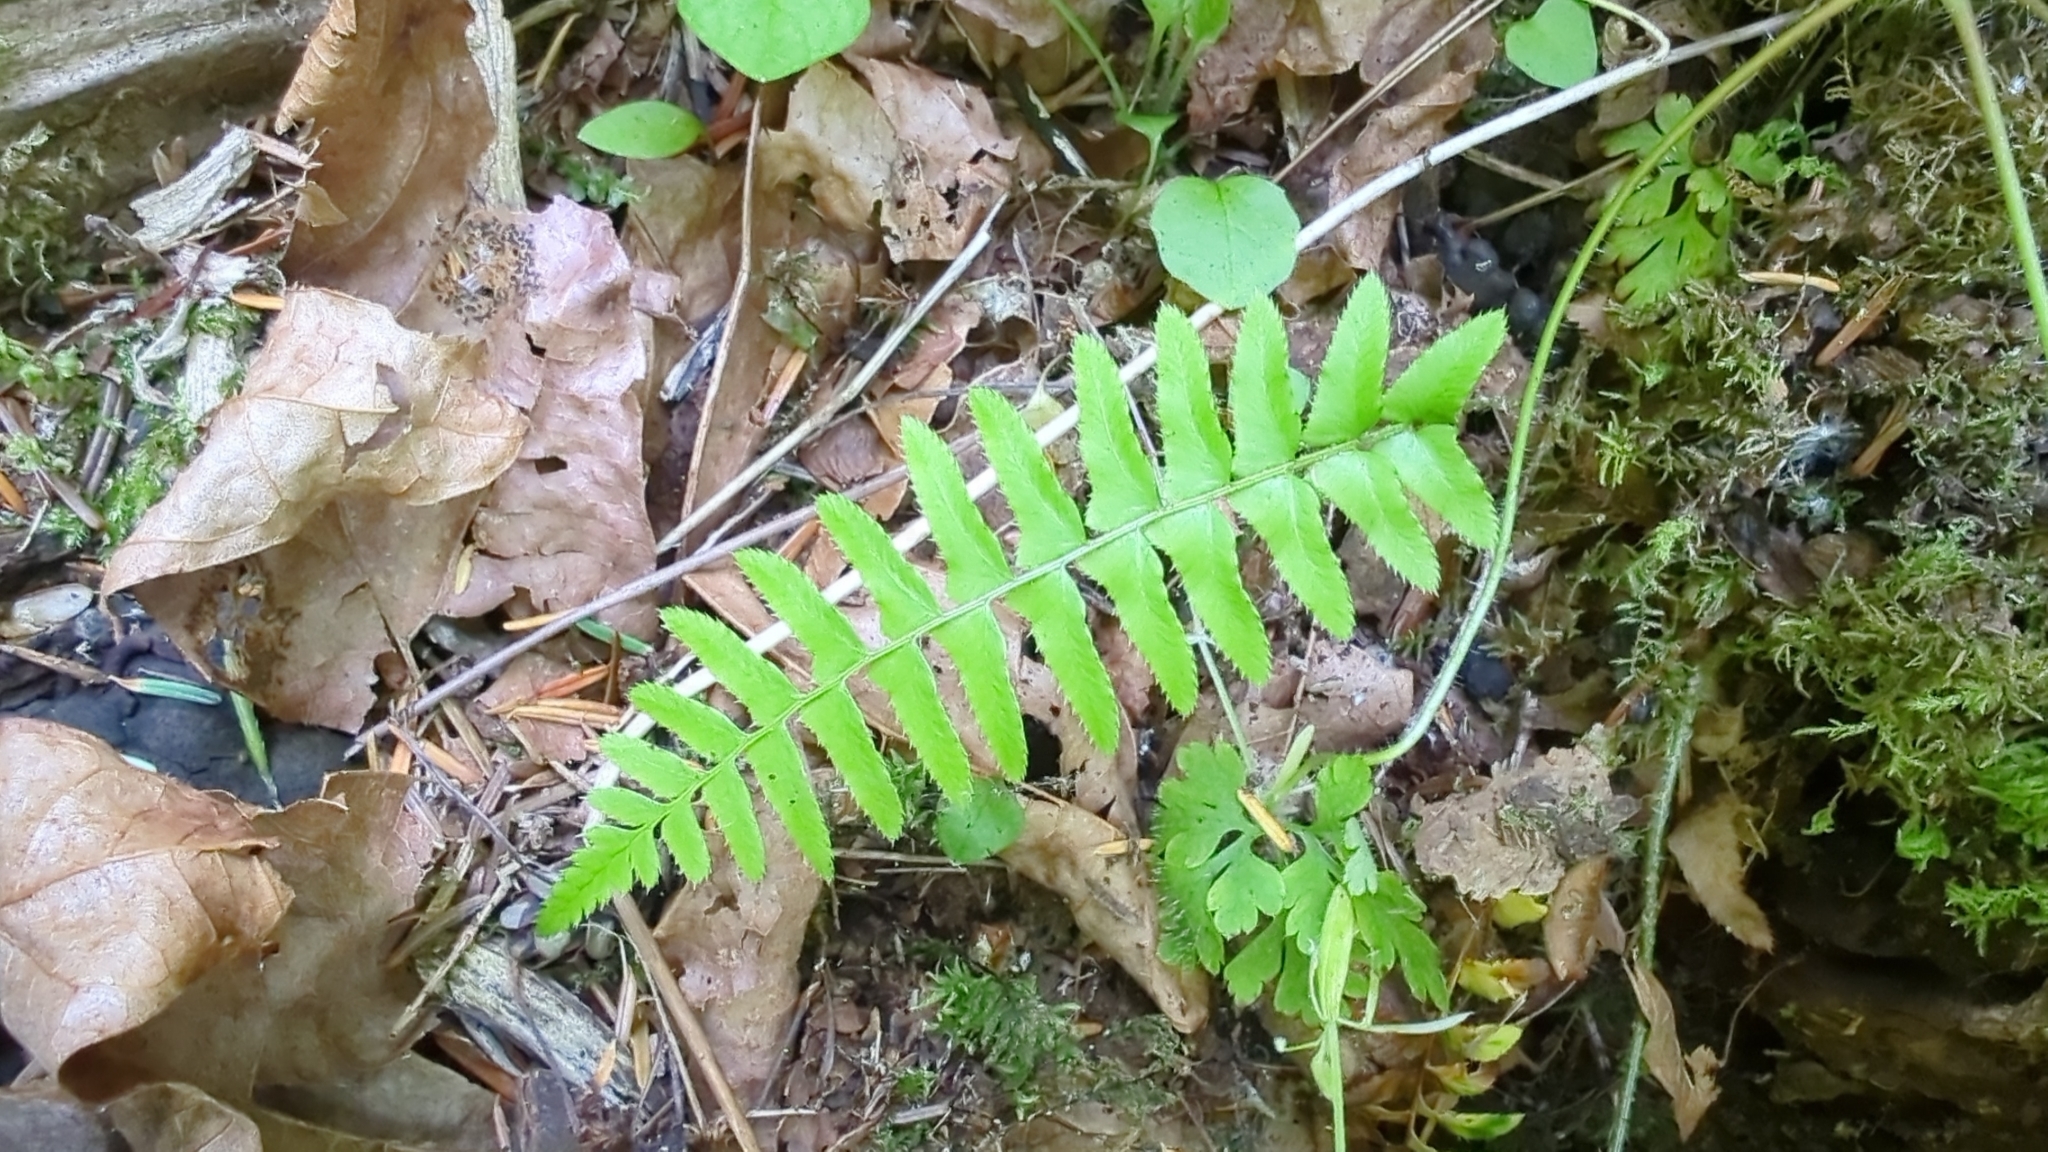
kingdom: Plantae
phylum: Tracheophyta
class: Polypodiopsida
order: Polypodiales
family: Dryopteridaceae
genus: Polystichum
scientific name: Polystichum munitum
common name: Western sword-fern
